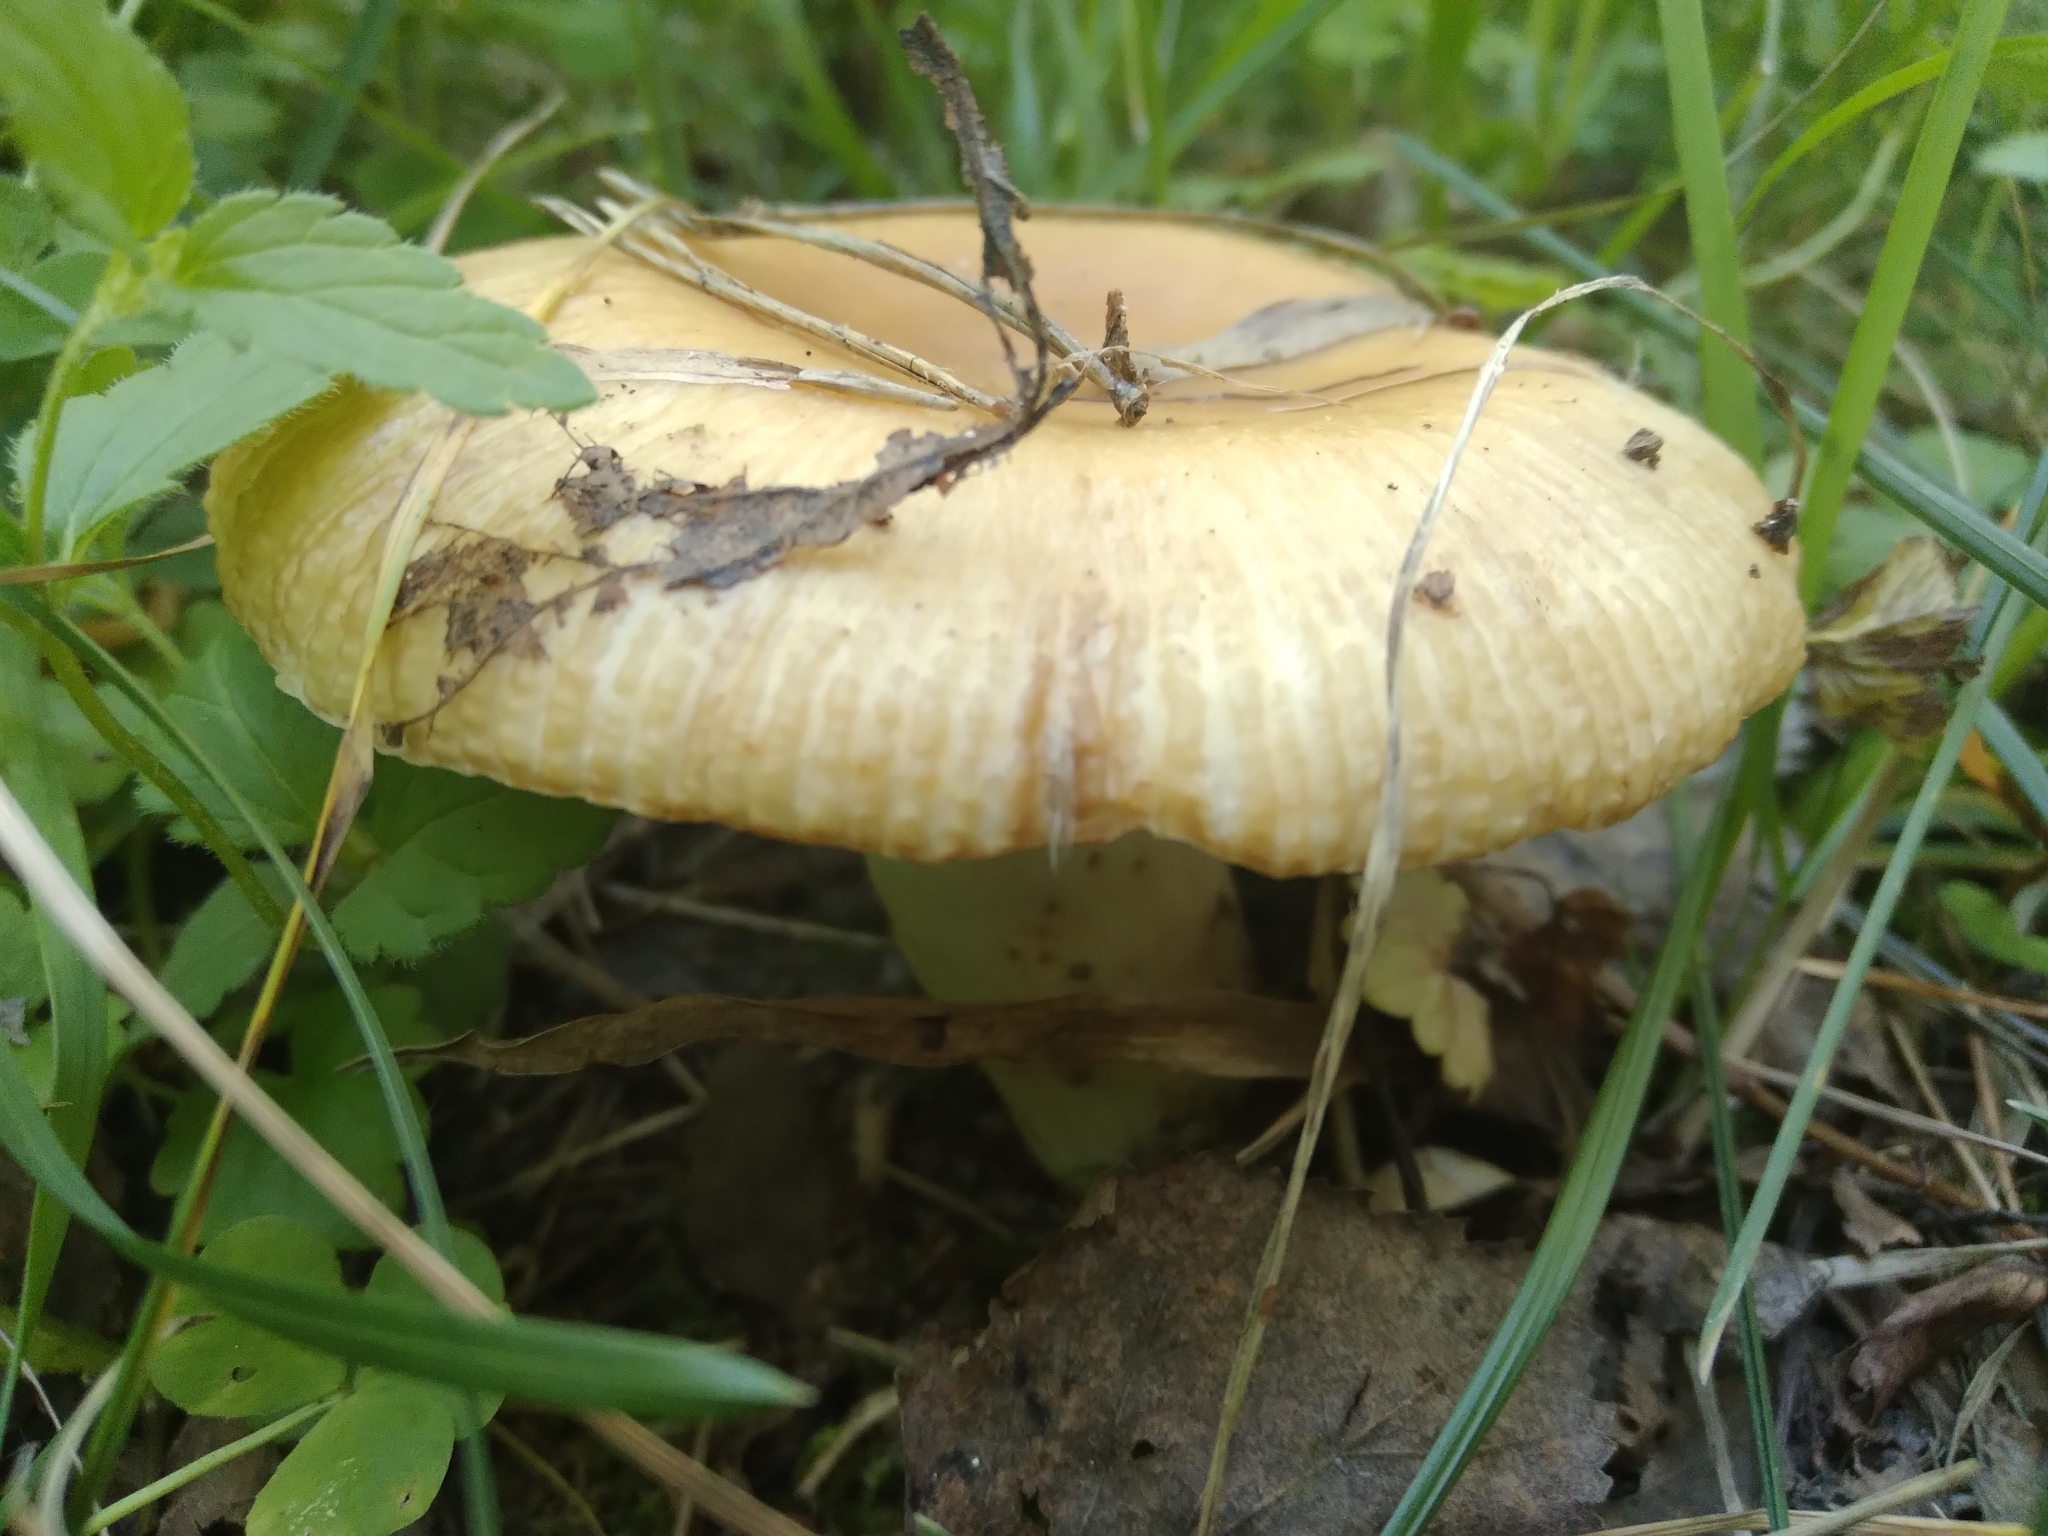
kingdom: Fungi
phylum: Basidiomycota
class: Agaricomycetes
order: Russulales
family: Russulaceae
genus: Russula
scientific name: Russula foetens
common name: Foetid russula
